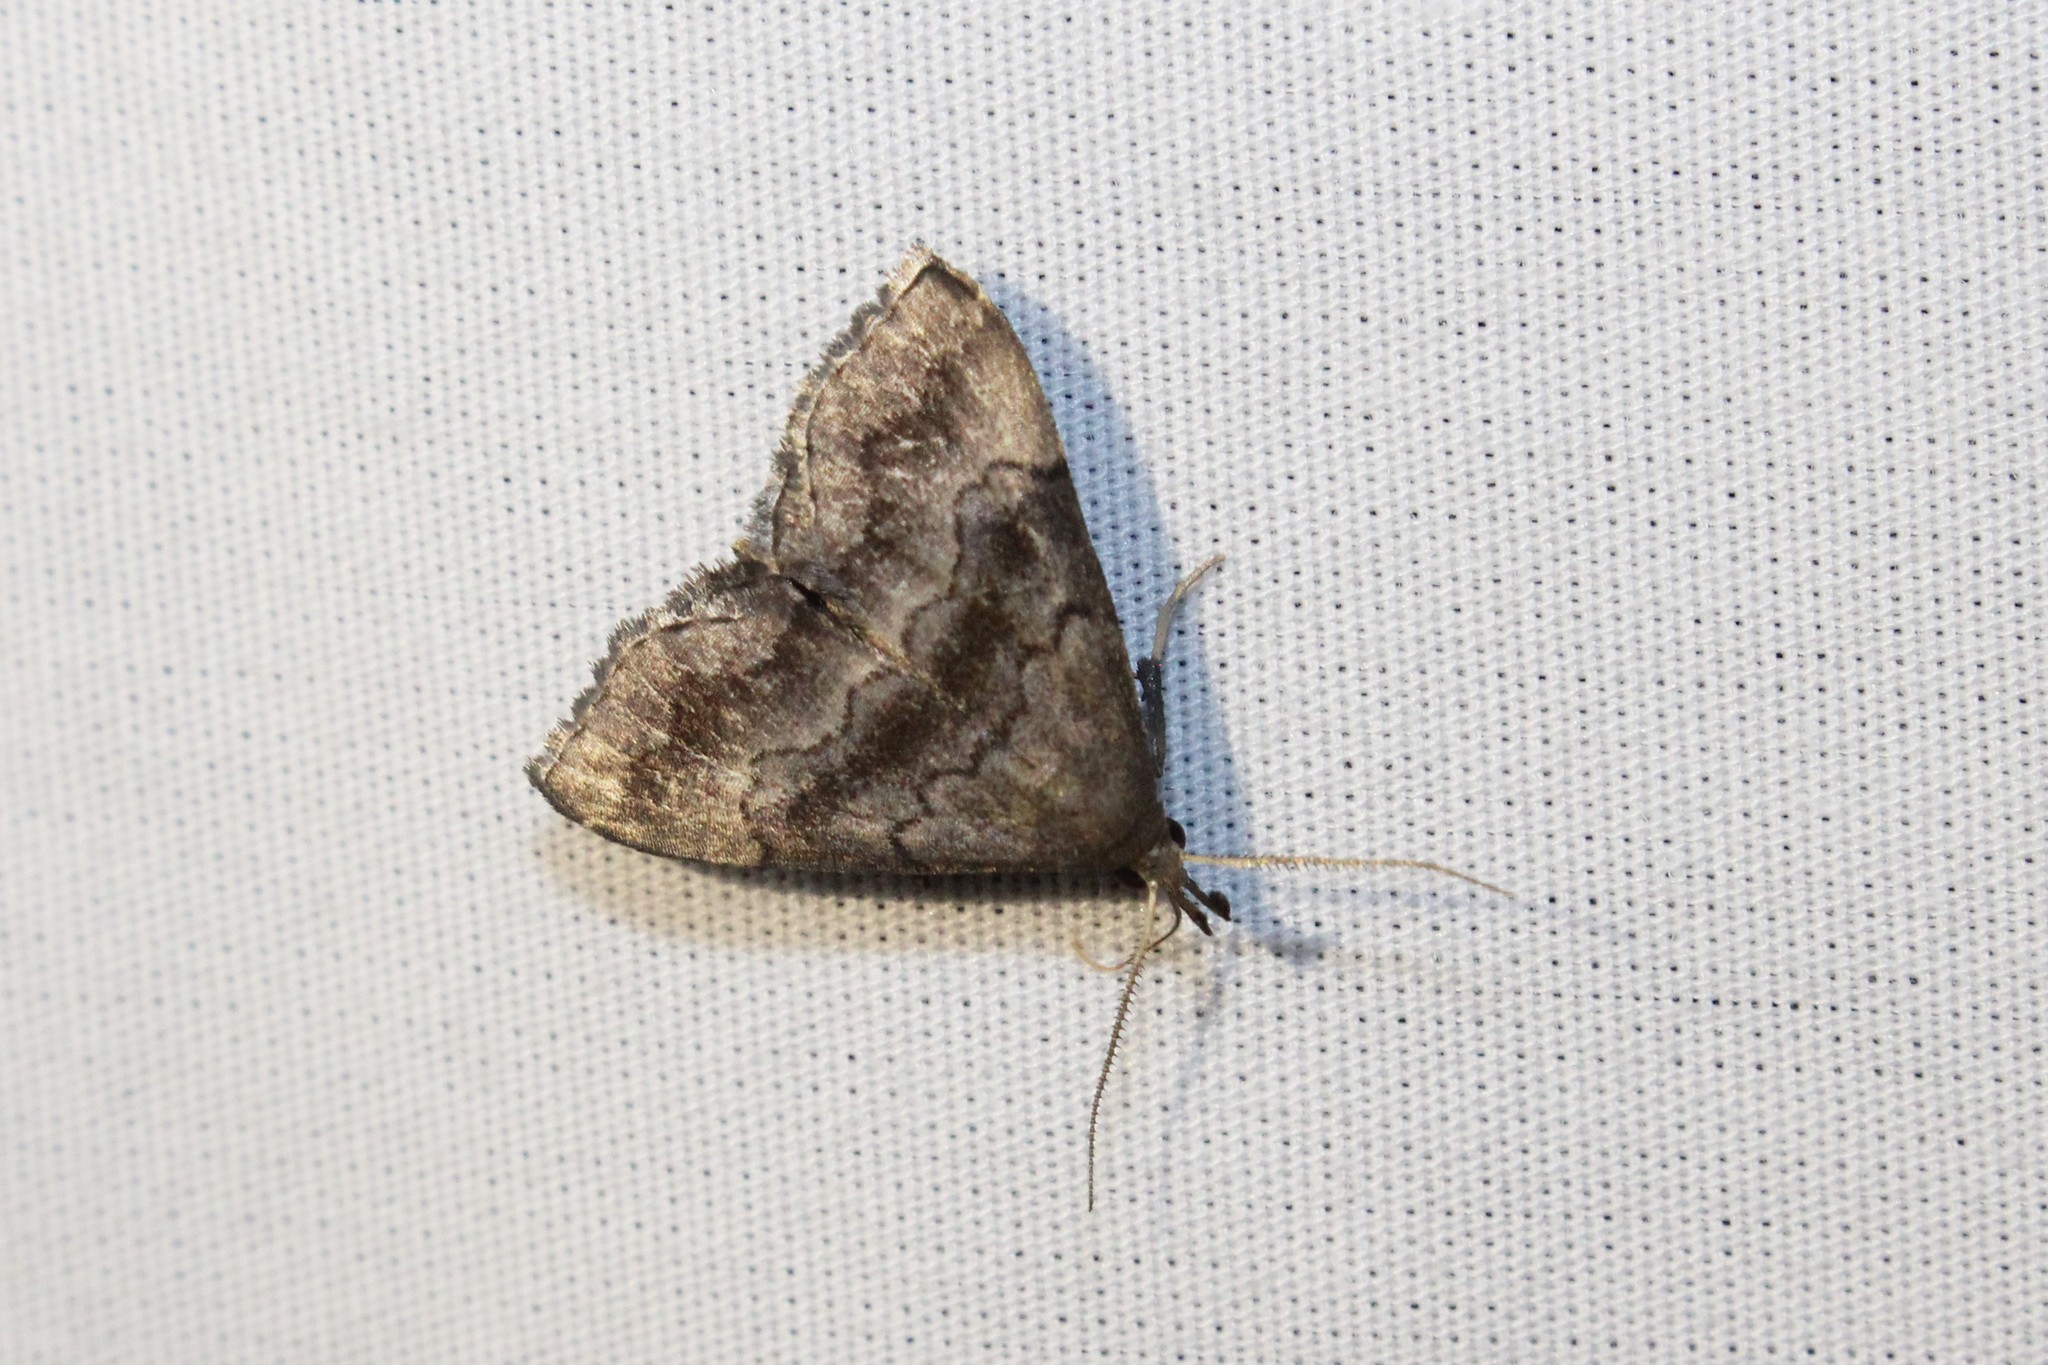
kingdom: Animalia
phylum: Arthropoda
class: Insecta
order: Lepidoptera
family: Erebidae
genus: Phalaenostola
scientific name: Phalaenostola larentioides
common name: Black-banded owlet
